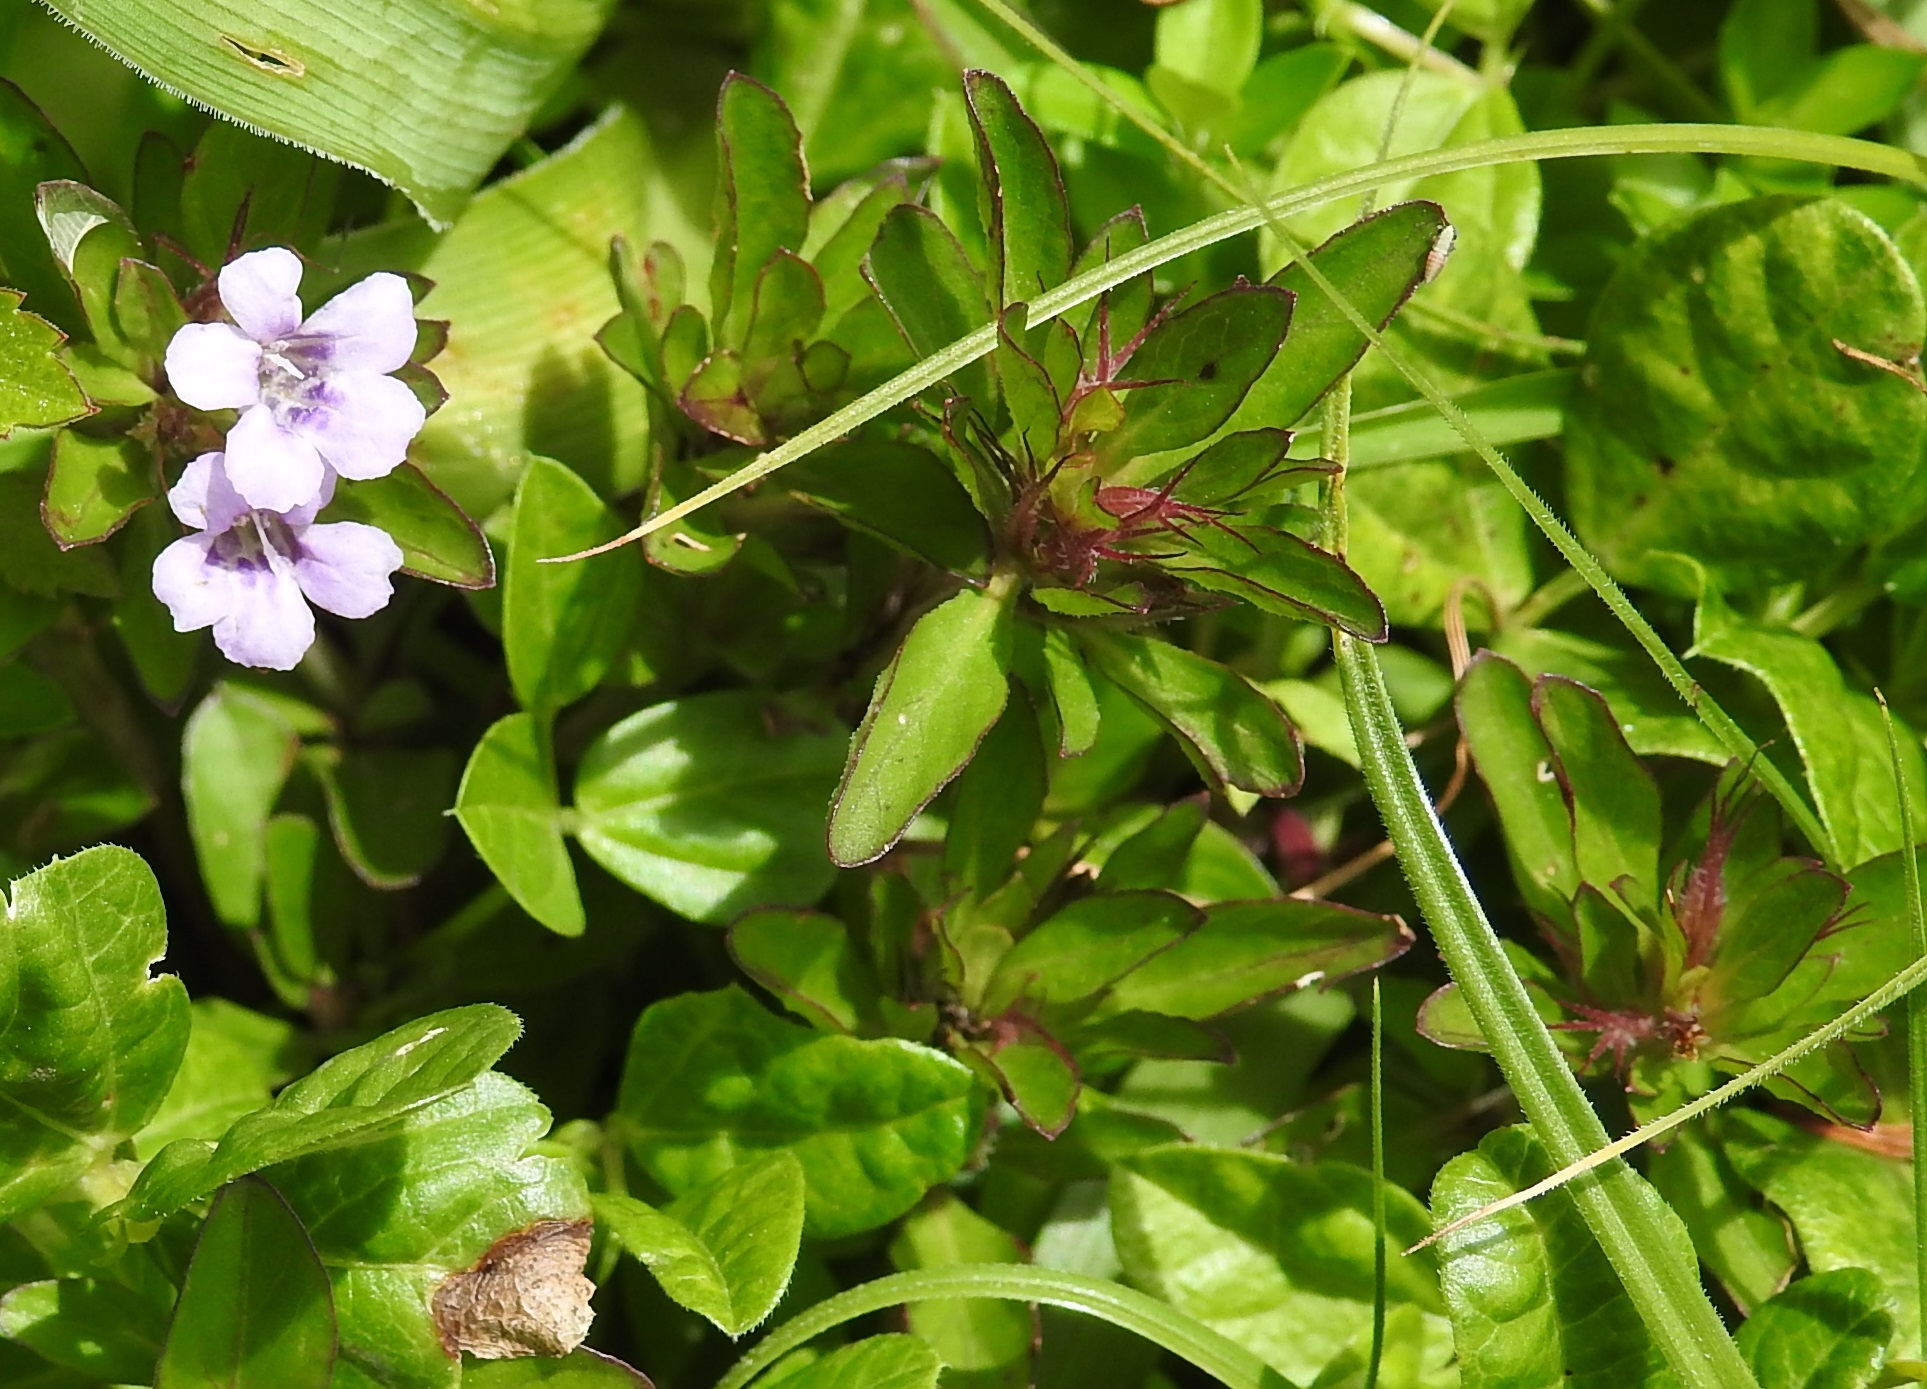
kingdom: Plantae
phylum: Tracheophyta
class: Magnoliopsida
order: Lamiales
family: Acanthaceae
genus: Dyschoriste
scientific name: Dyschoriste capitata
